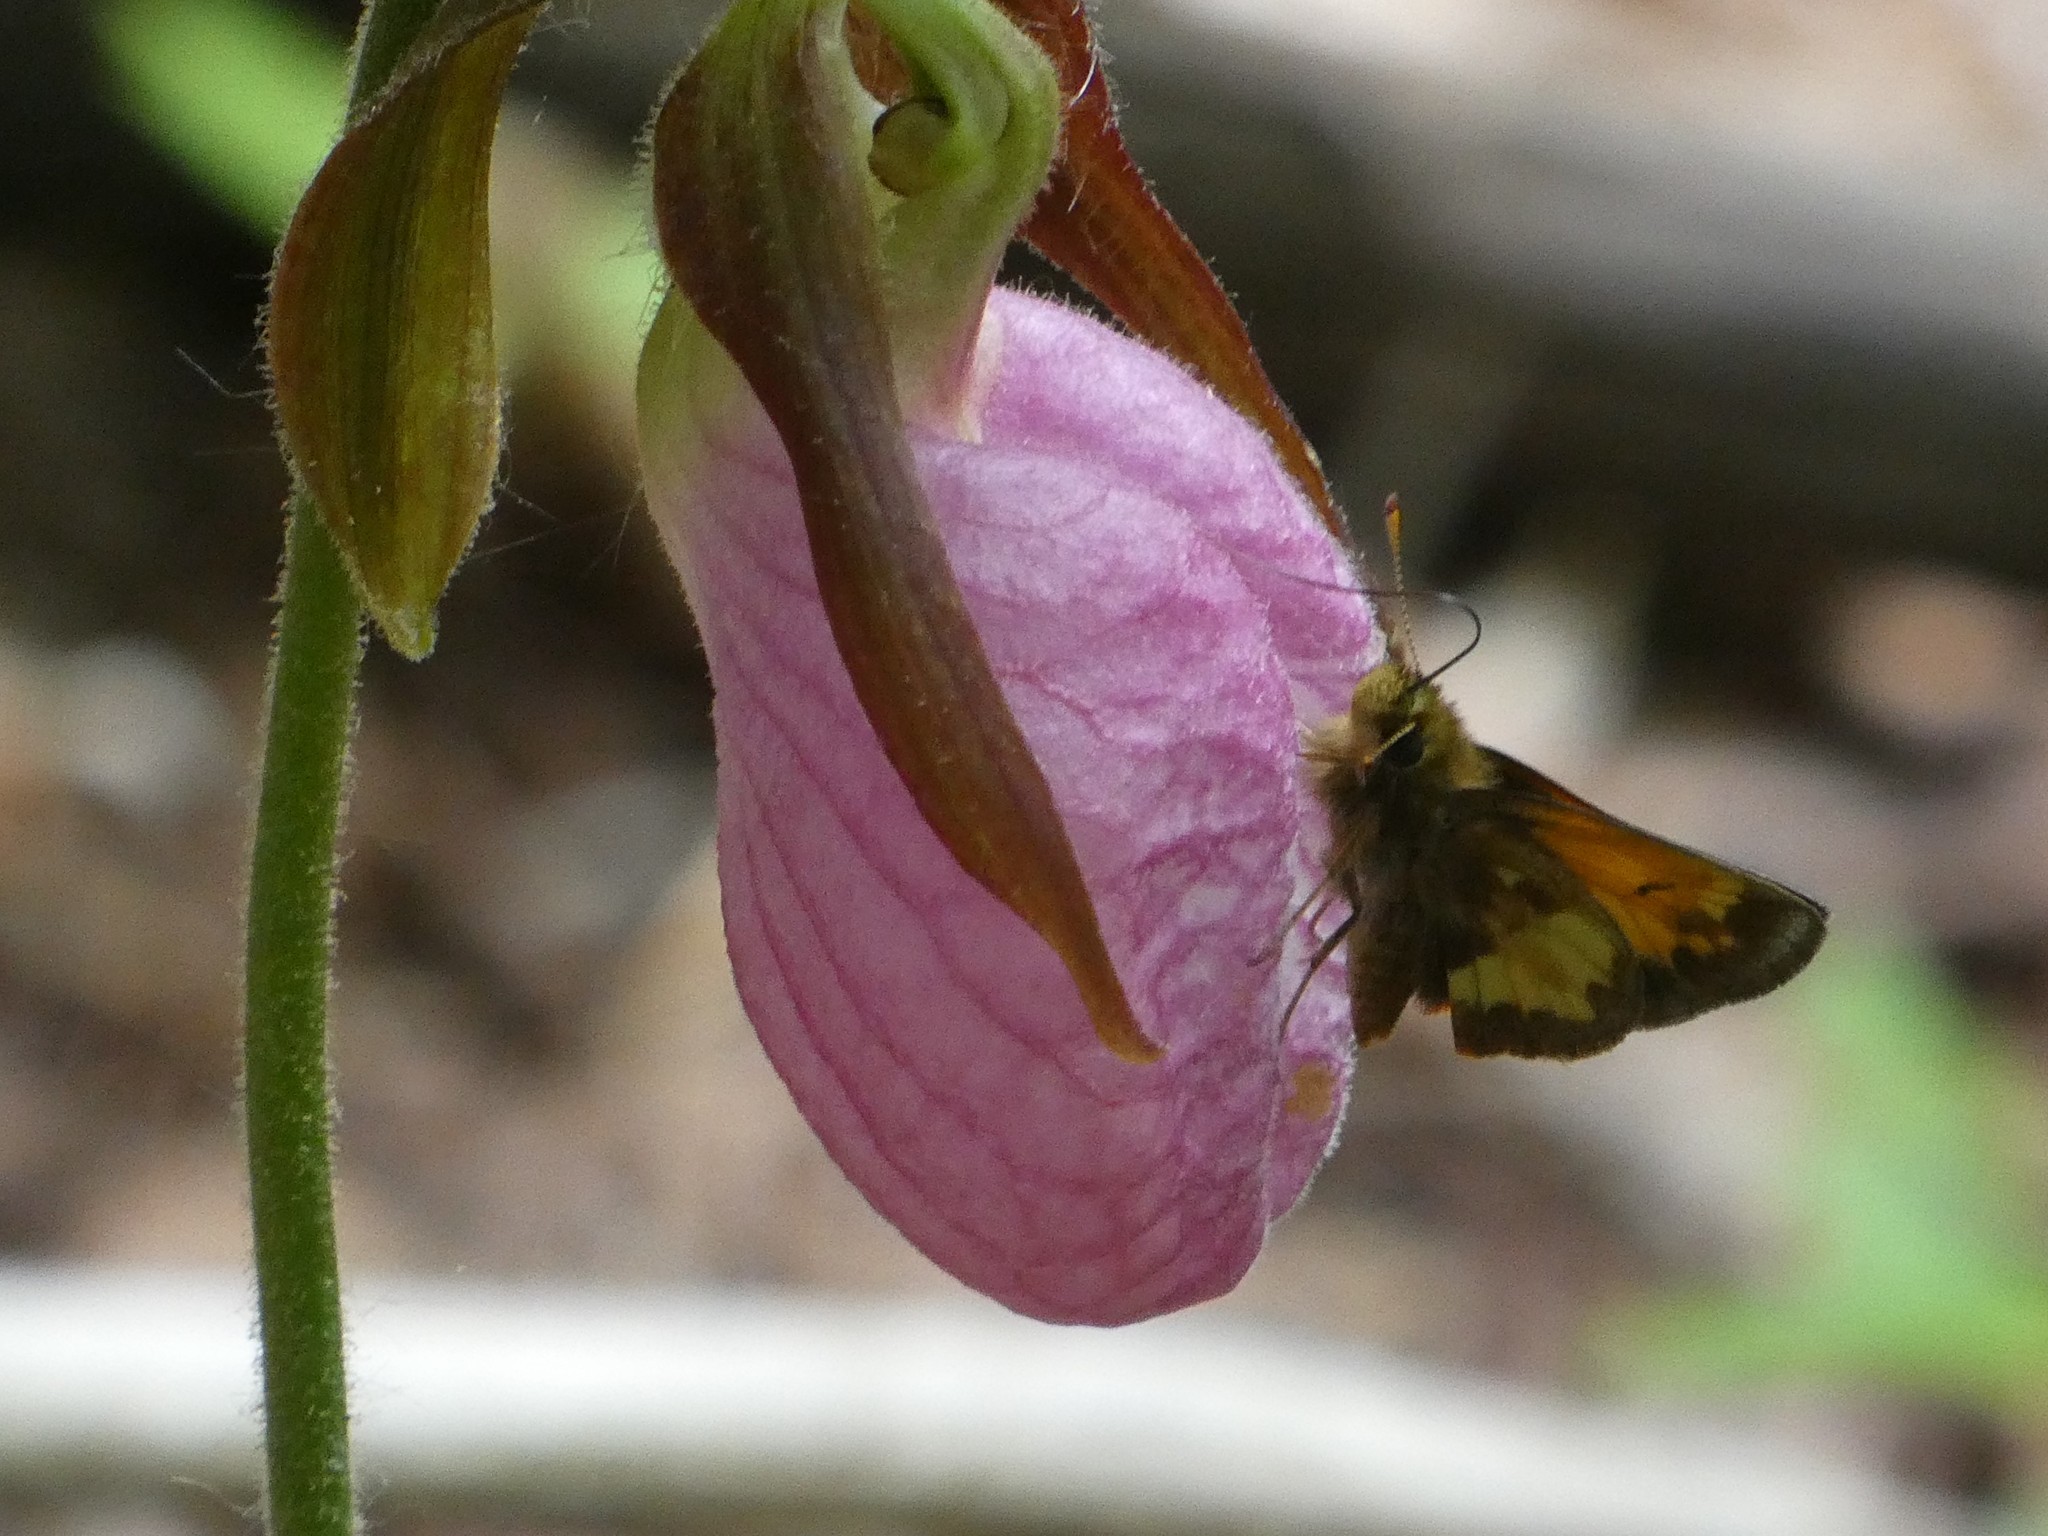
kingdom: Plantae
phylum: Tracheophyta
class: Liliopsida
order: Asparagales
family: Orchidaceae
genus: Cypripedium
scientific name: Cypripedium acaule
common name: Pink lady's-slipper
